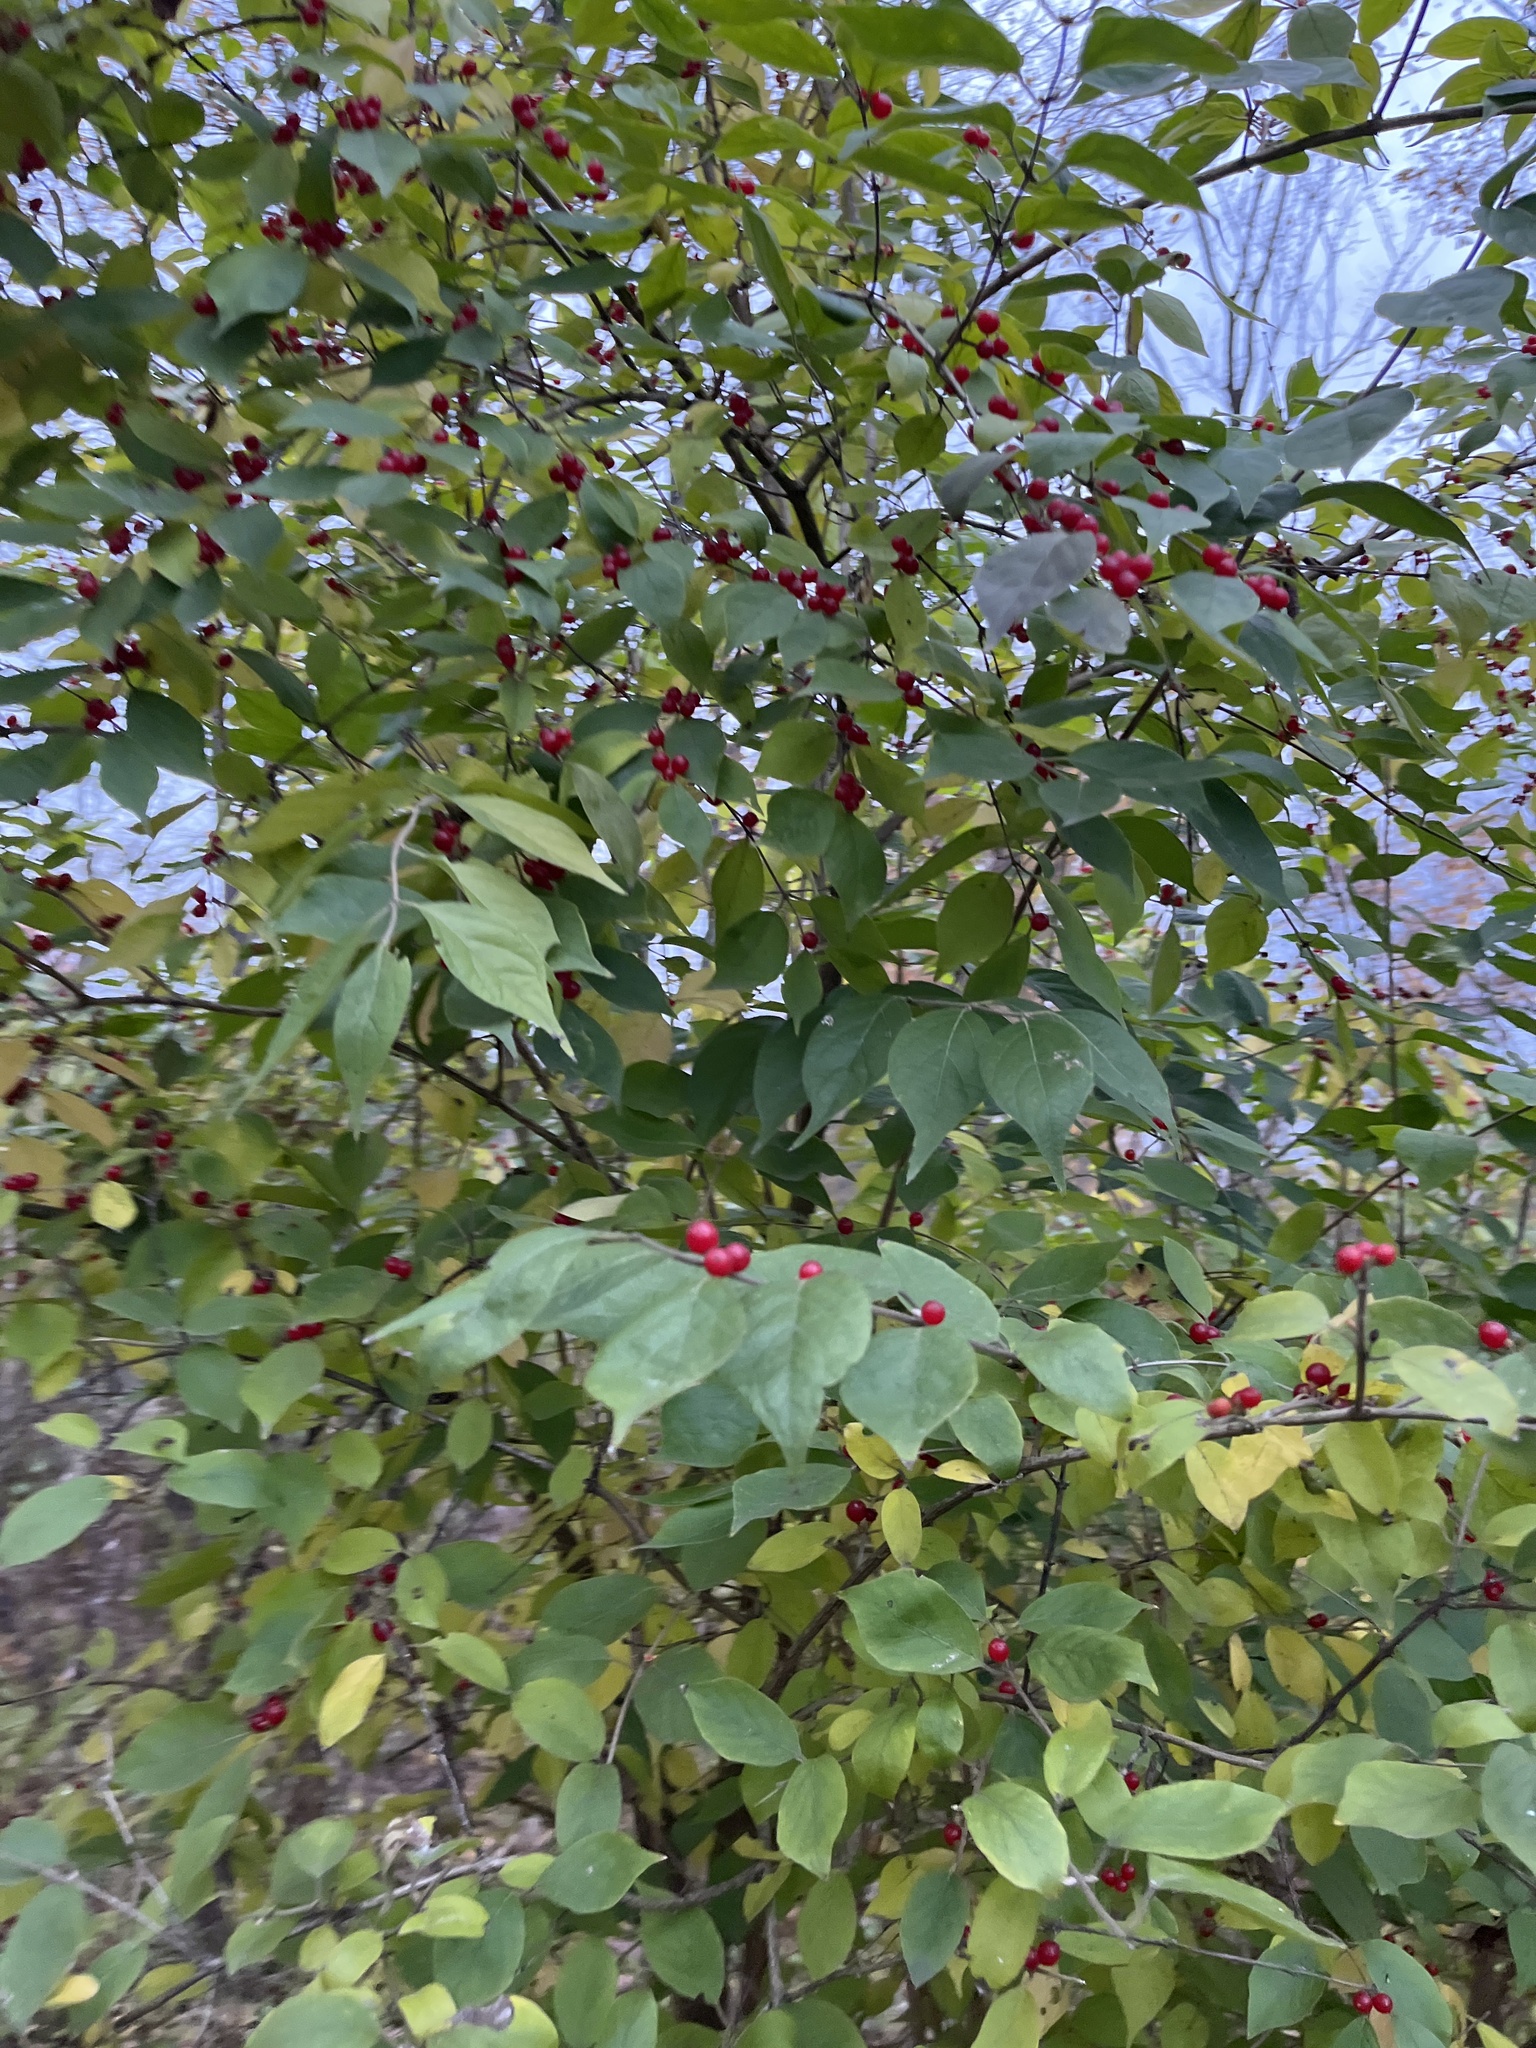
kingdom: Plantae
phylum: Tracheophyta
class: Magnoliopsida
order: Dipsacales
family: Caprifoliaceae
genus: Lonicera
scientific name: Lonicera maackii
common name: Amur honeysuckle
